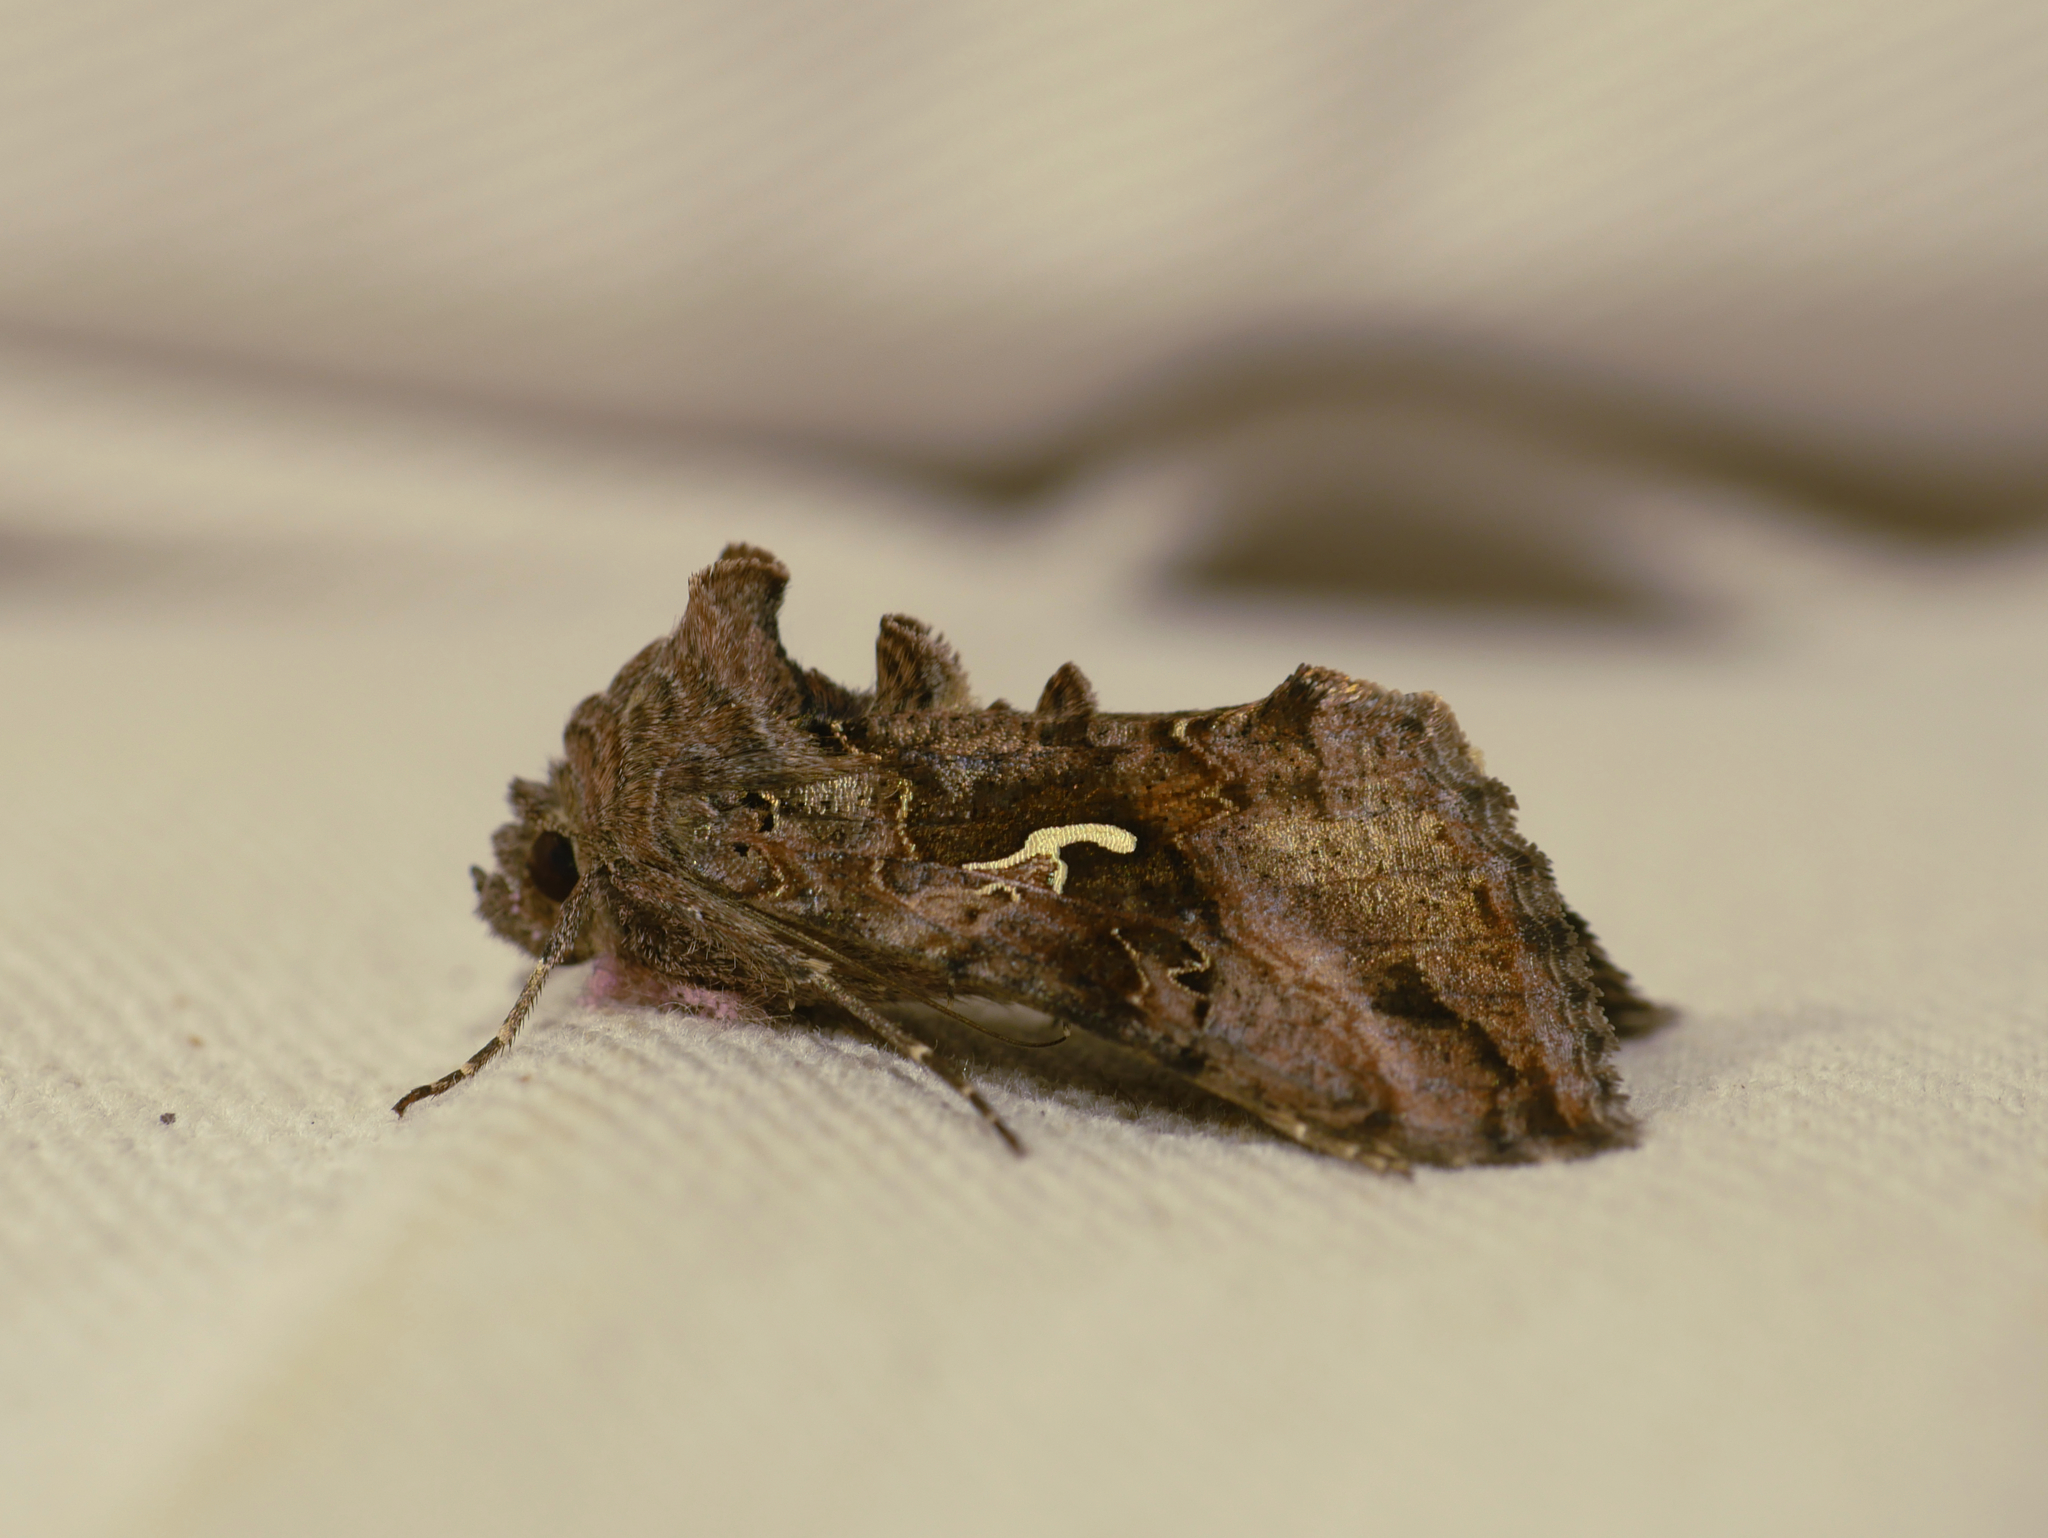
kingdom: Animalia
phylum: Arthropoda
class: Insecta
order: Lepidoptera
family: Noctuidae
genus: Autographa
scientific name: Autographa gamma
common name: Silver y
